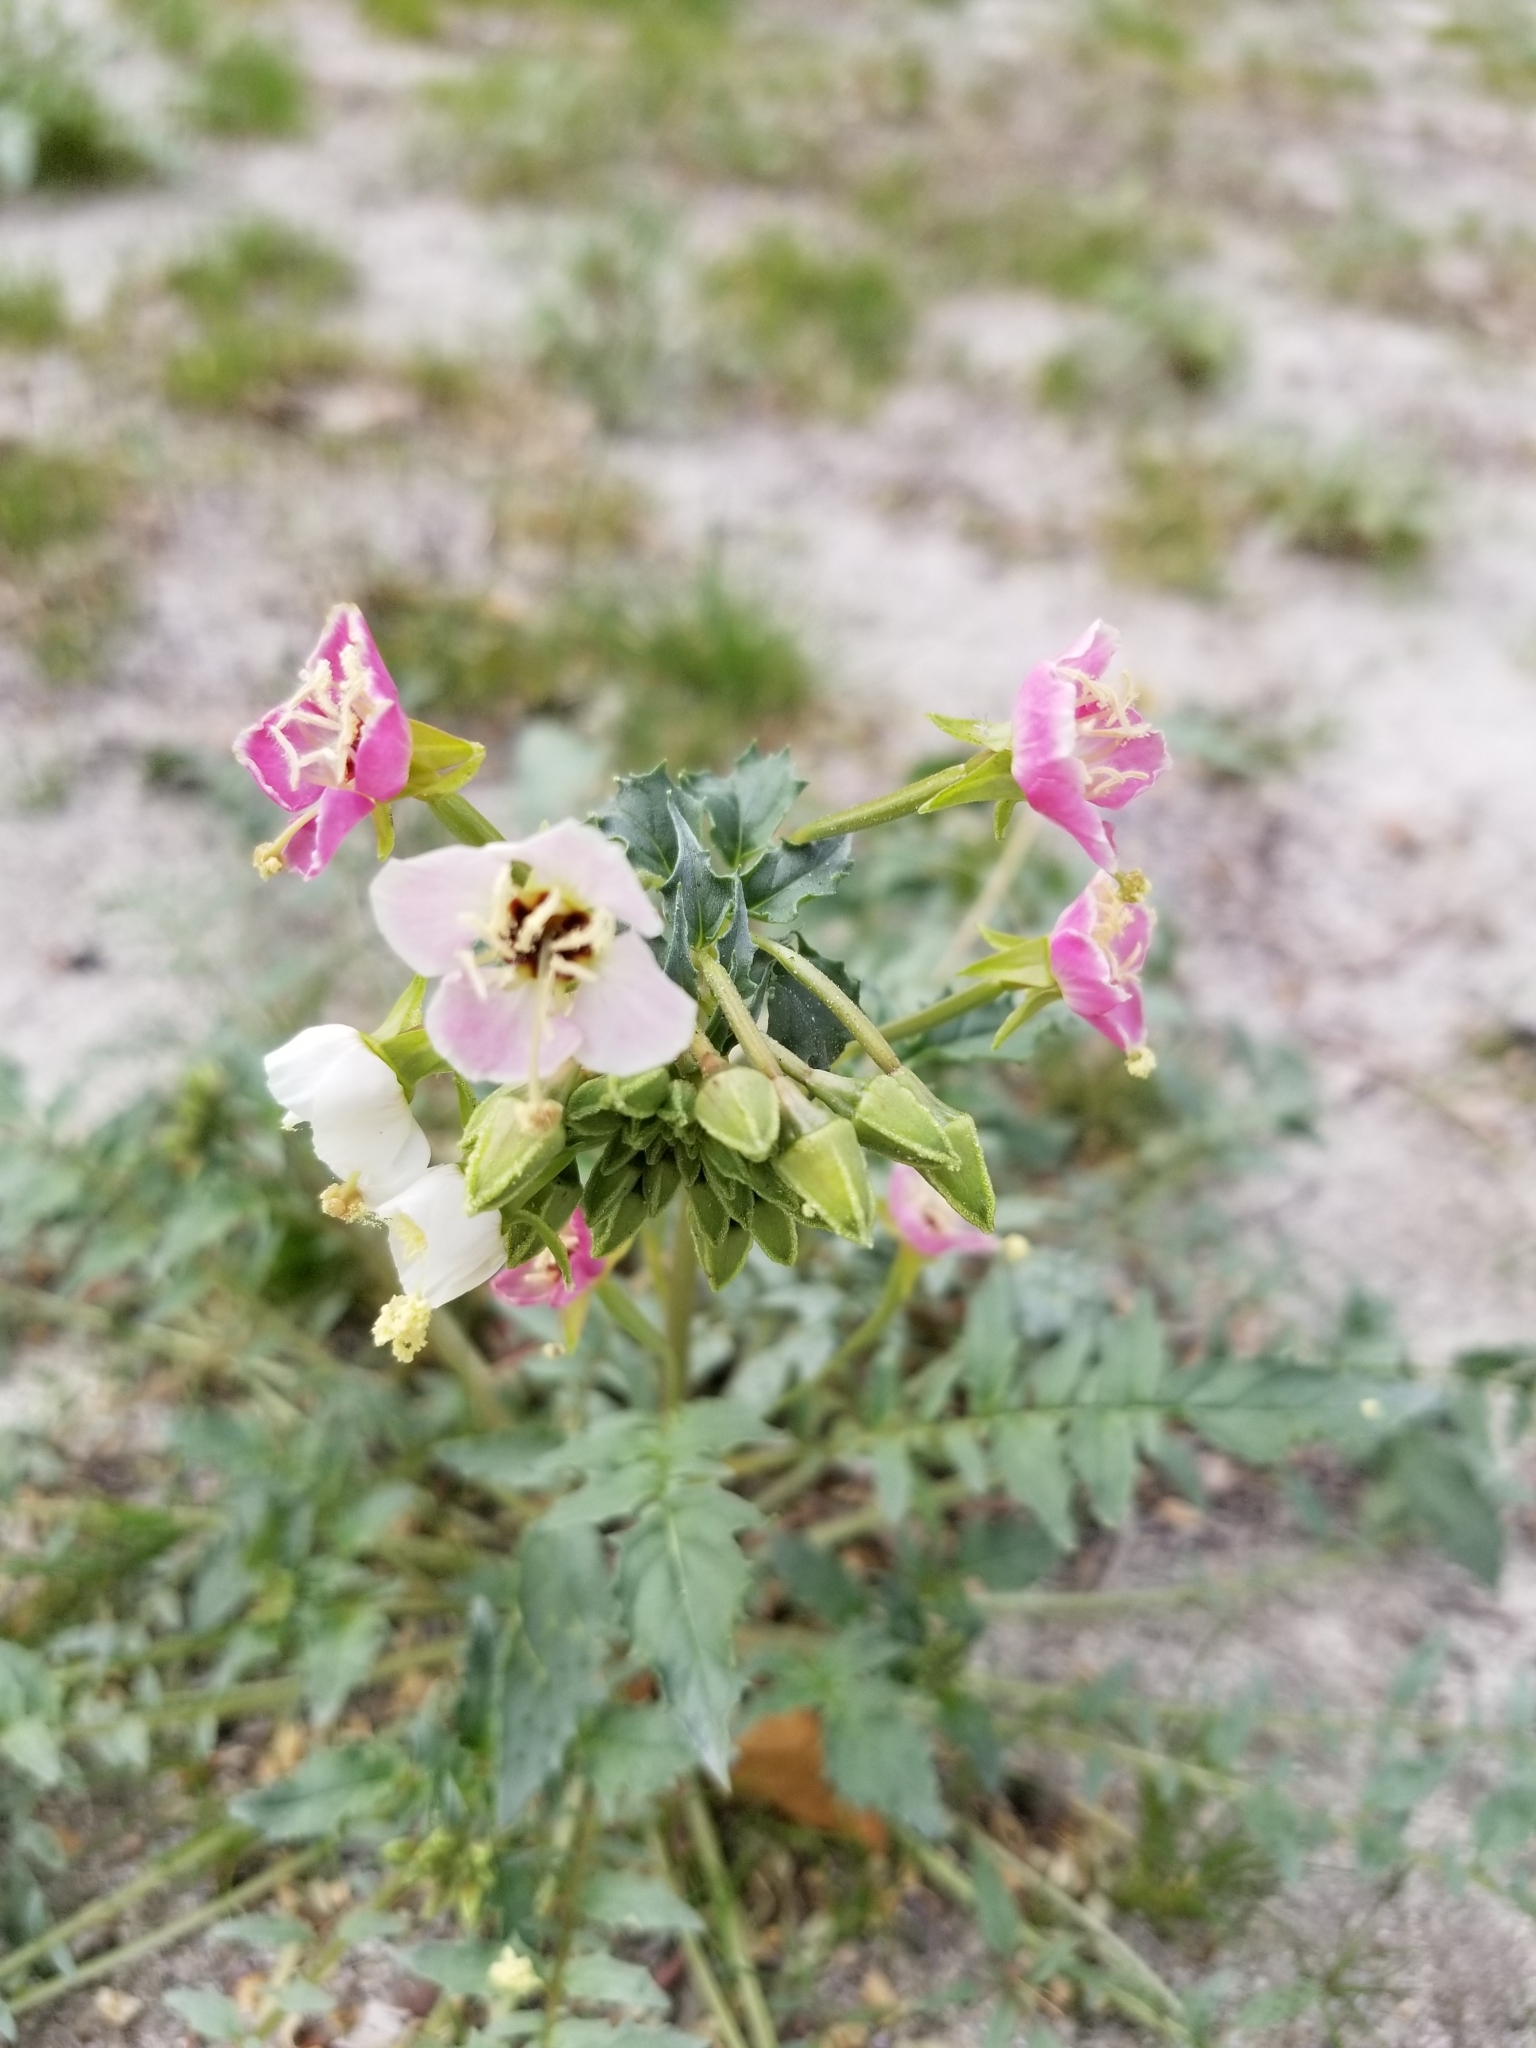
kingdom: Plantae
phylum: Tracheophyta
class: Magnoliopsida
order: Myrtales
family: Onagraceae
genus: Chylismia
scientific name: Chylismia claviformis
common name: Browneyes
